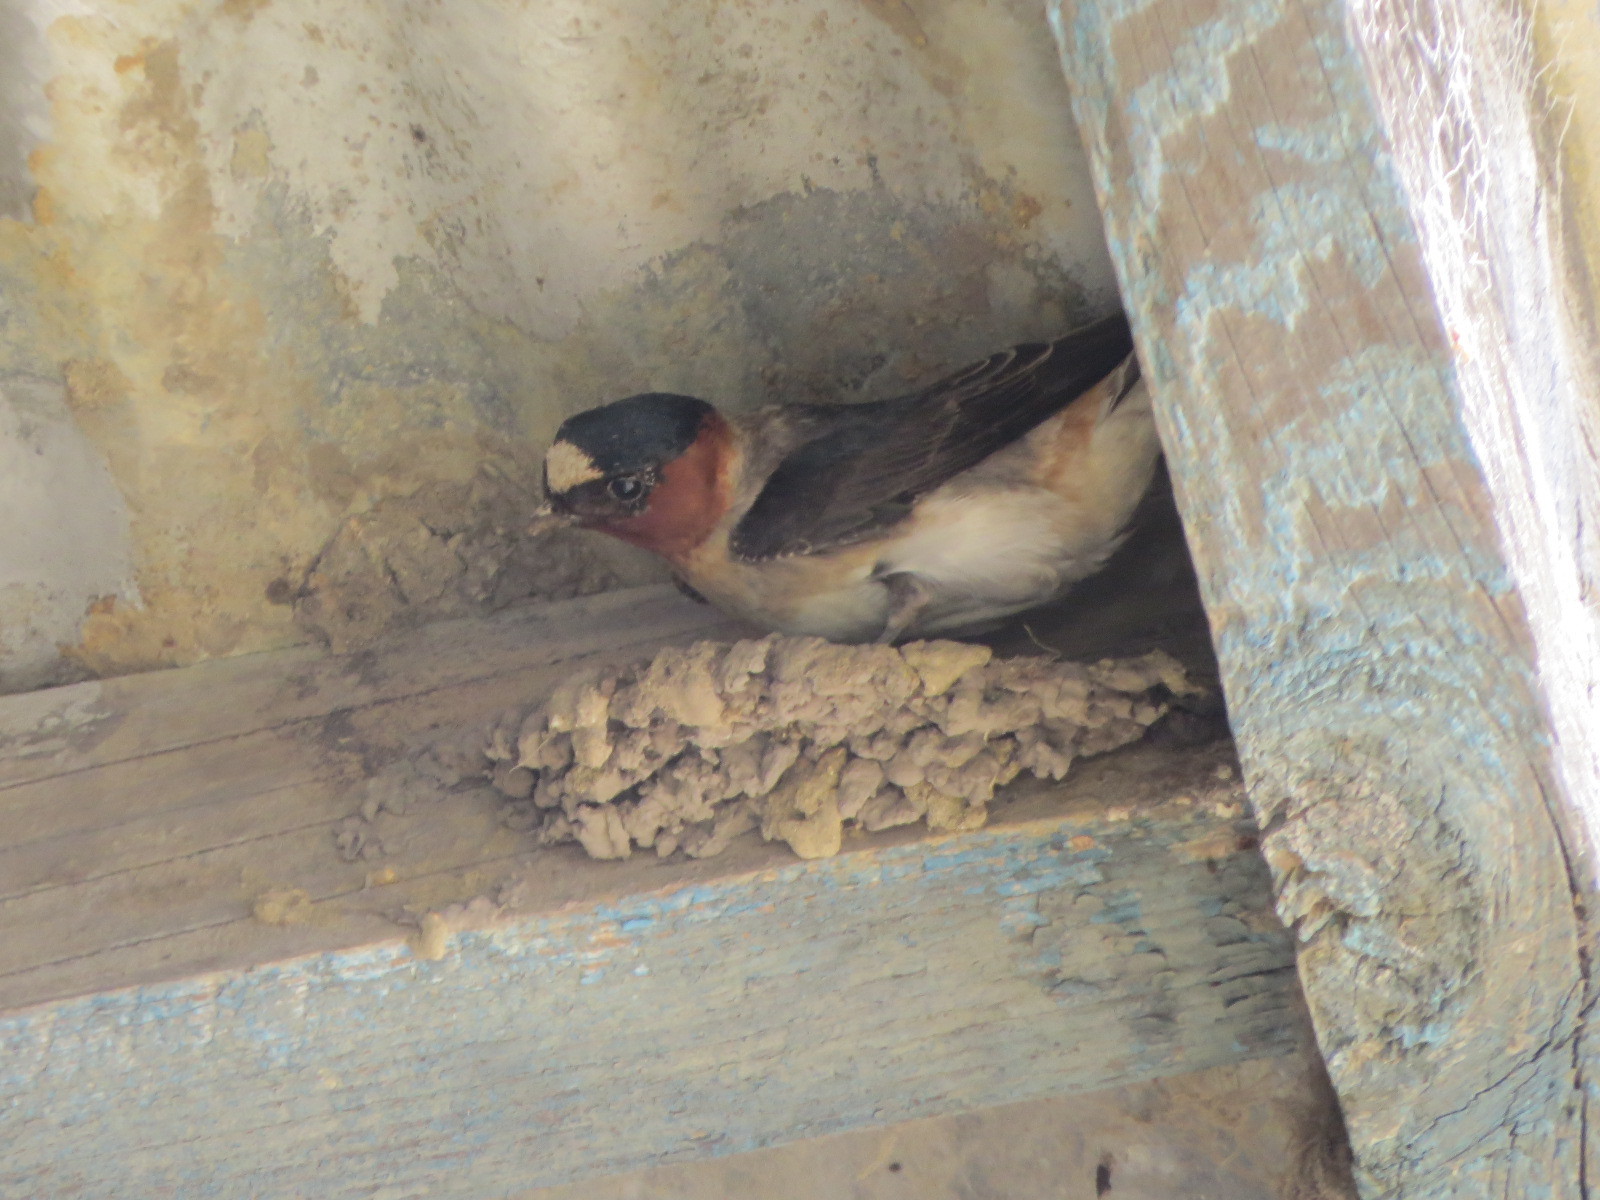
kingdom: Animalia
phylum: Chordata
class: Aves
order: Passeriformes
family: Hirundinidae
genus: Petrochelidon
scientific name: Petrochelidon pyrrhonota
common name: American cliff swallow
